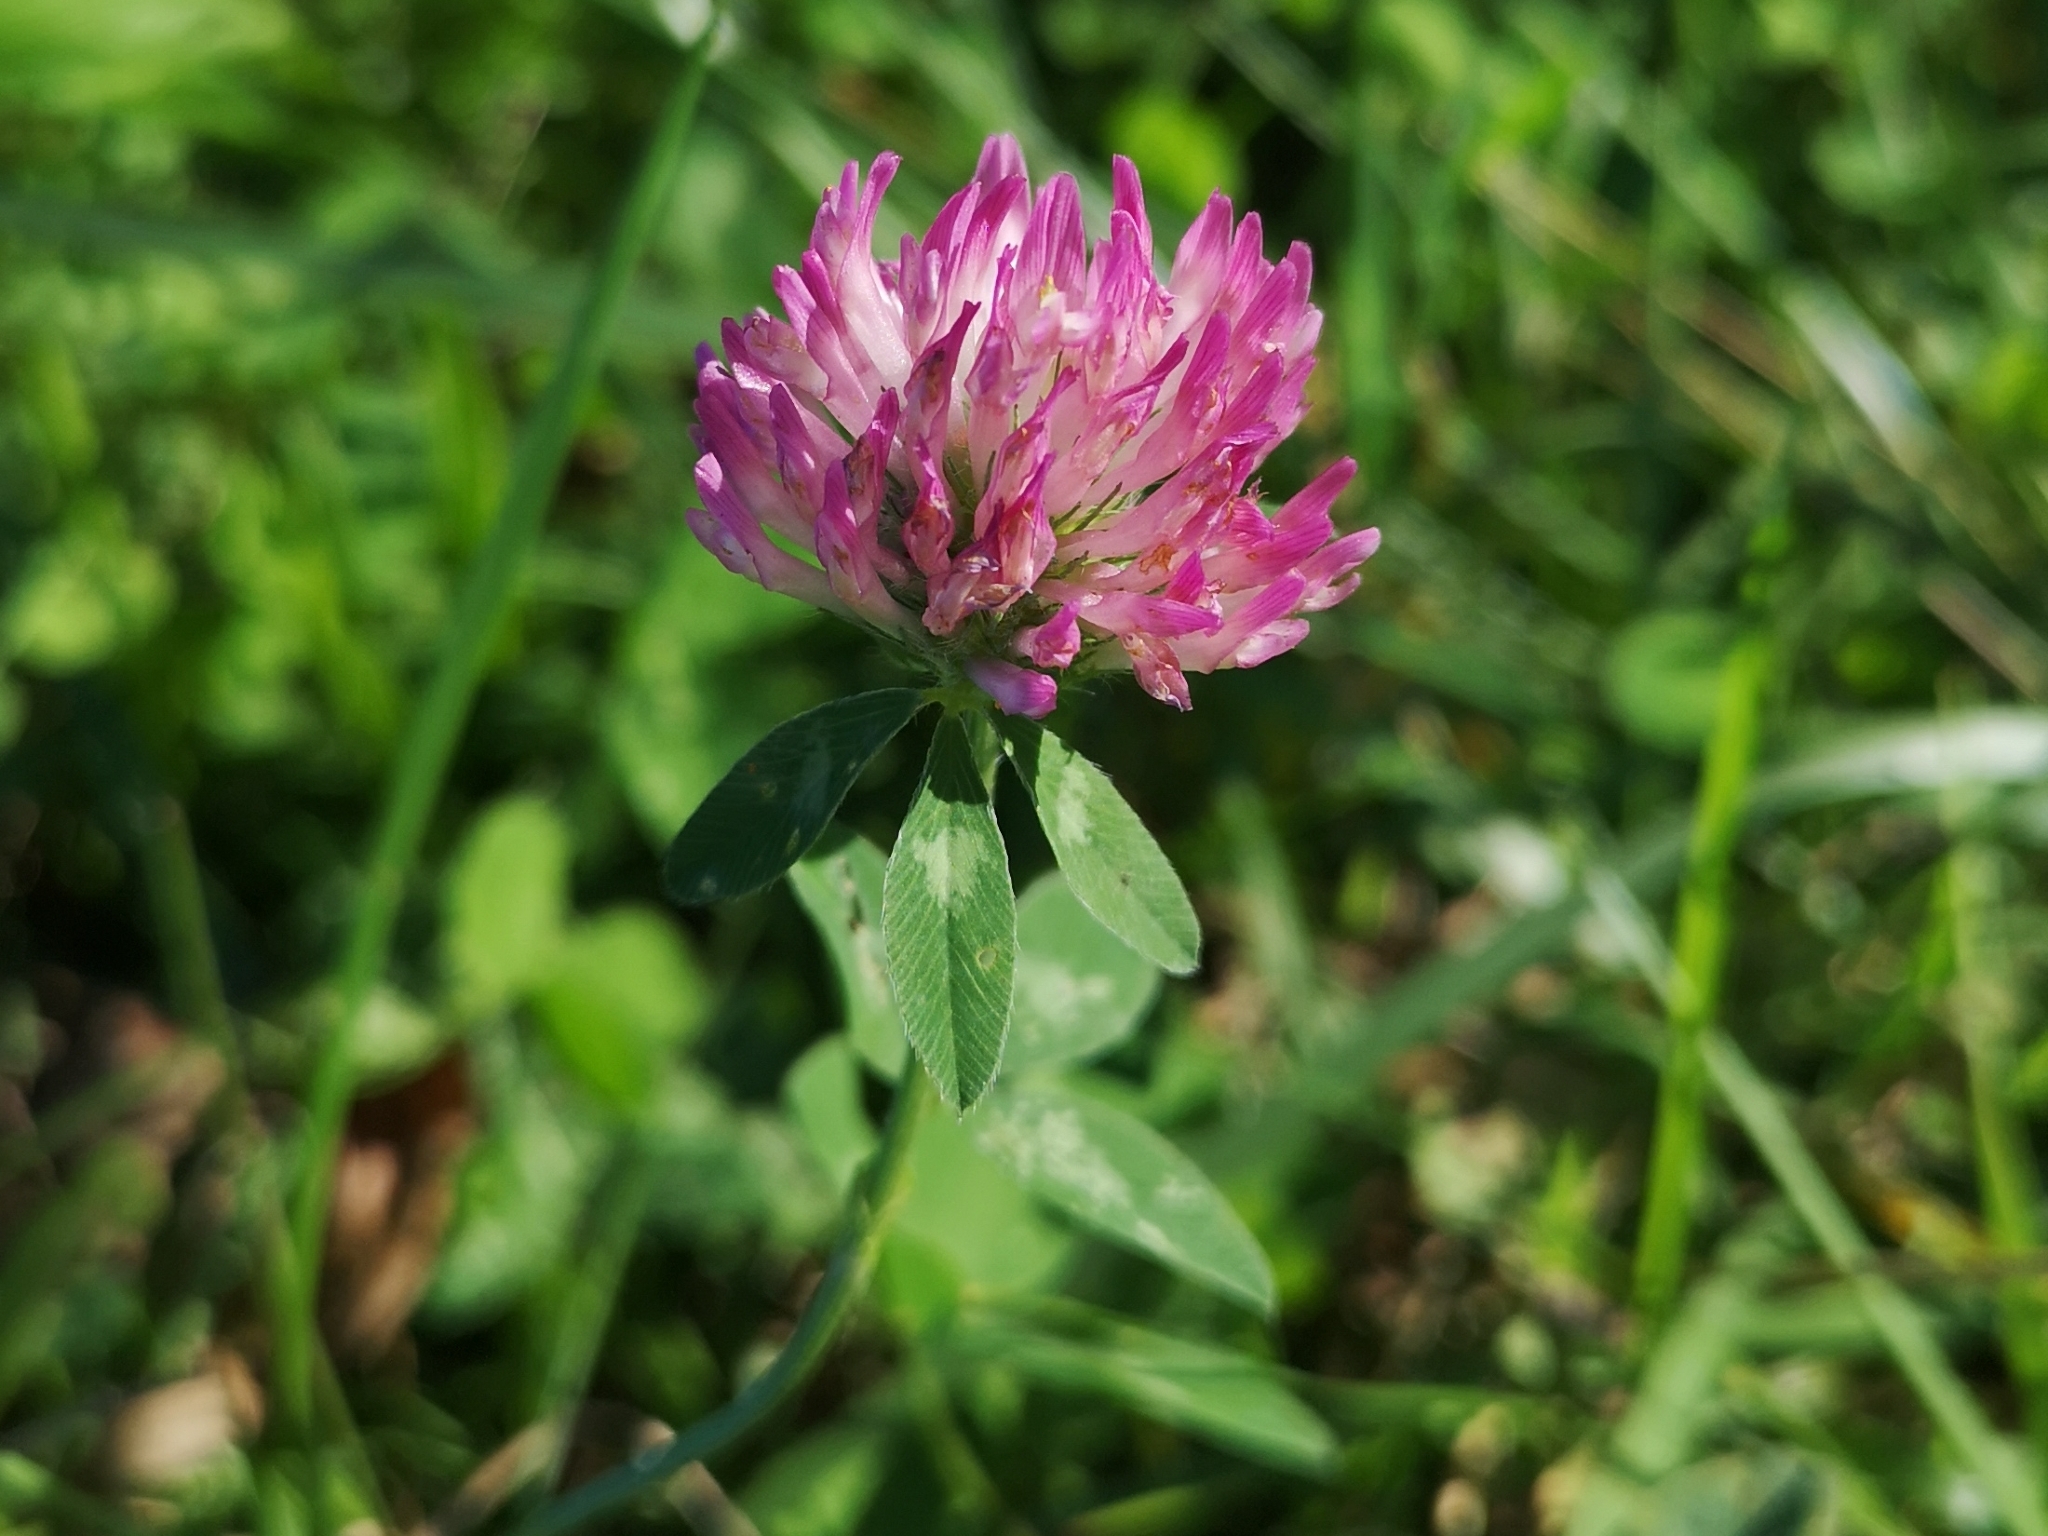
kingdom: Plantae
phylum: Tracheophyta
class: Magnoliopsida
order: Fabales
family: Fabaceae
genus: Trifolium
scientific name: Trifolium pratense
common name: Red clover
